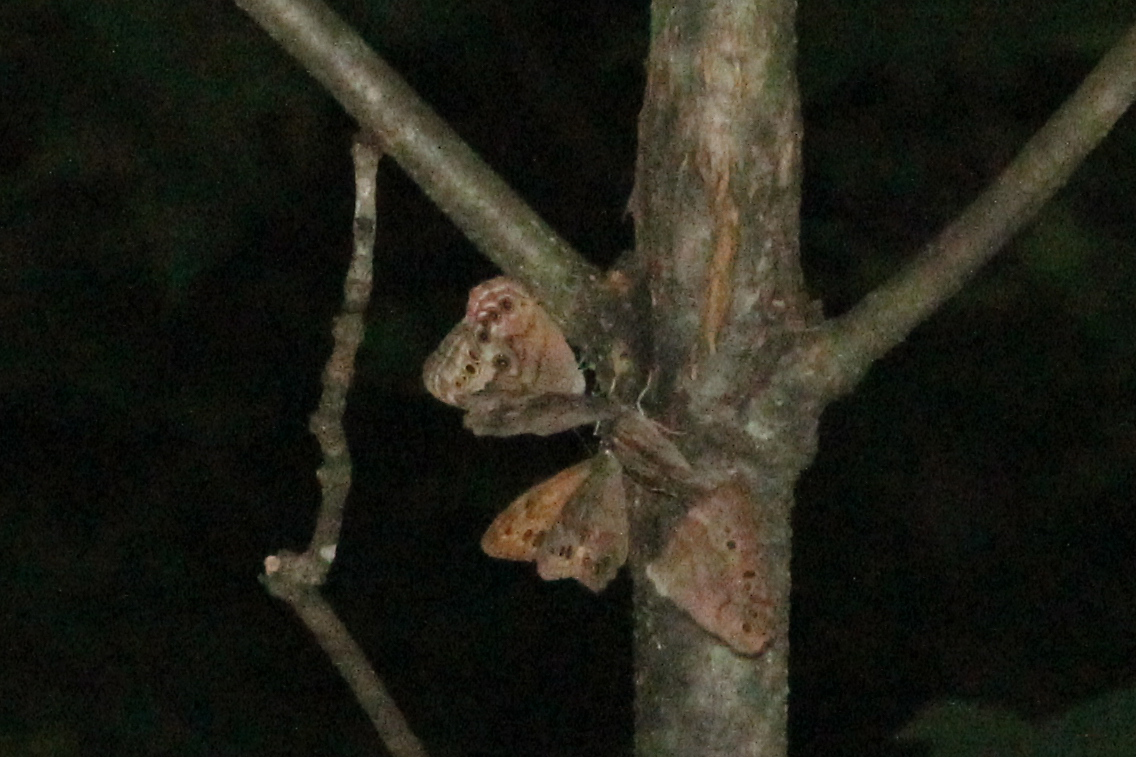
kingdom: Animalia
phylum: Arthropoda
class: Insecta
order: Lepidoptera
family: Nymphalidae
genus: Lethe
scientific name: Lethe anthedon
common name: Northern pearly-eye
